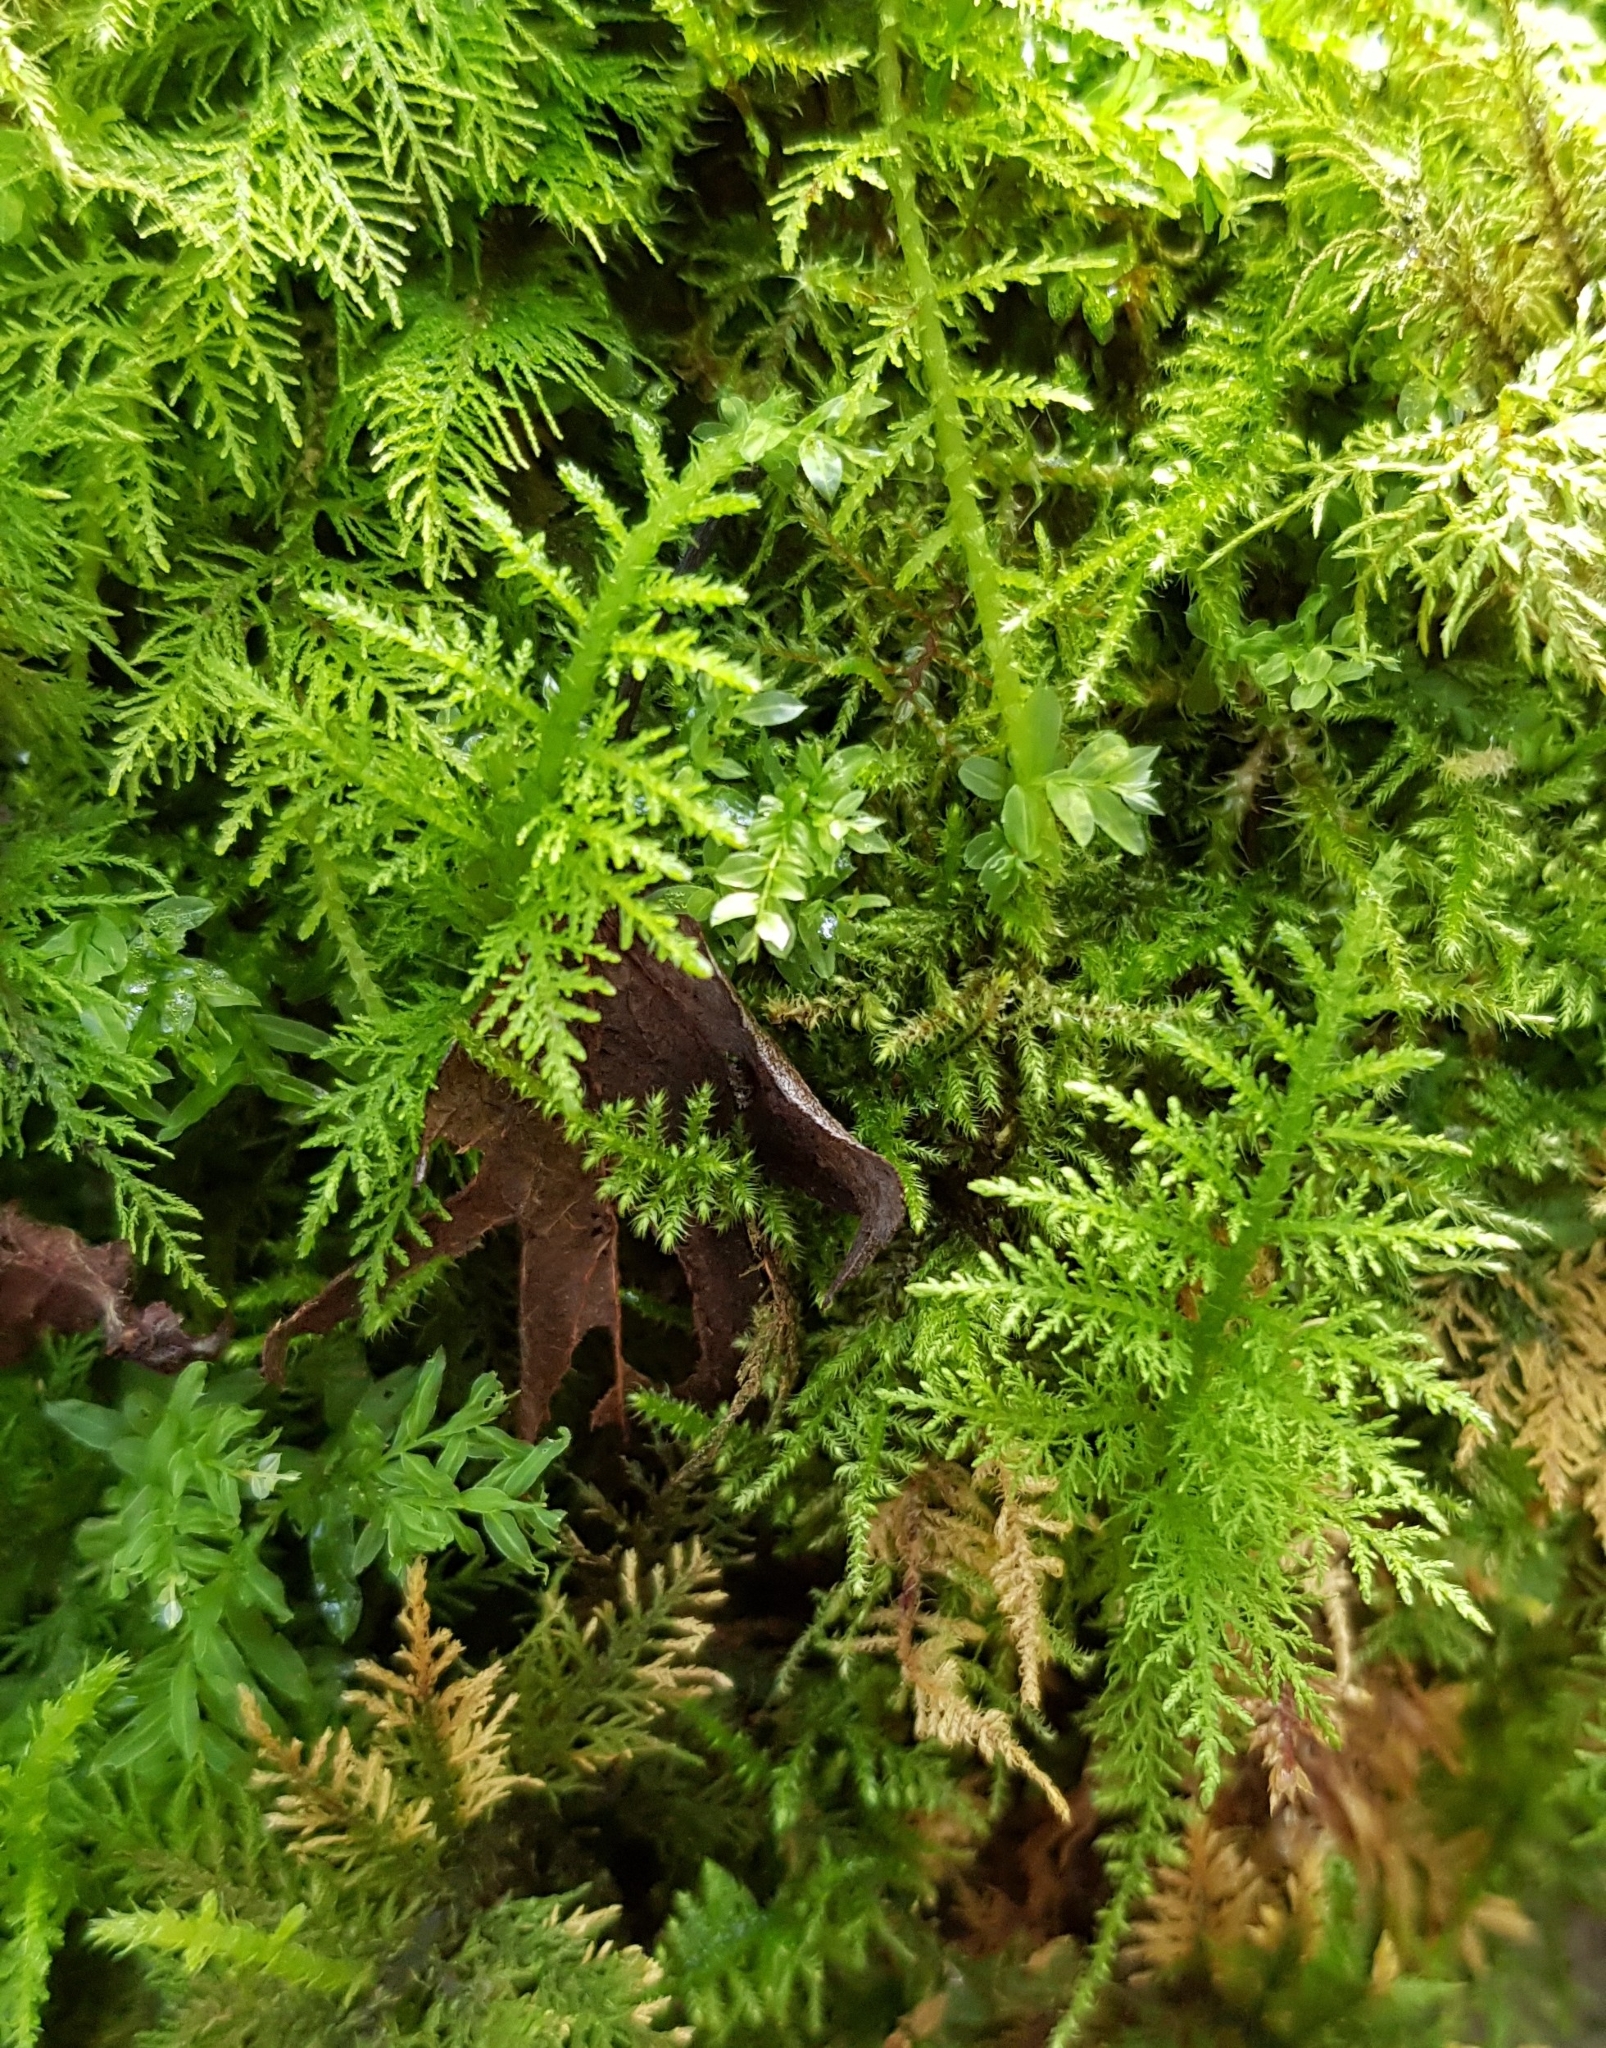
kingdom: Plantae
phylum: Bryophyta
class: Bryopsida
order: Hypnales
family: Thuidiaceae
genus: Thuidium
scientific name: Thuidium tamariscinum
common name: Common tamarisk-moss
